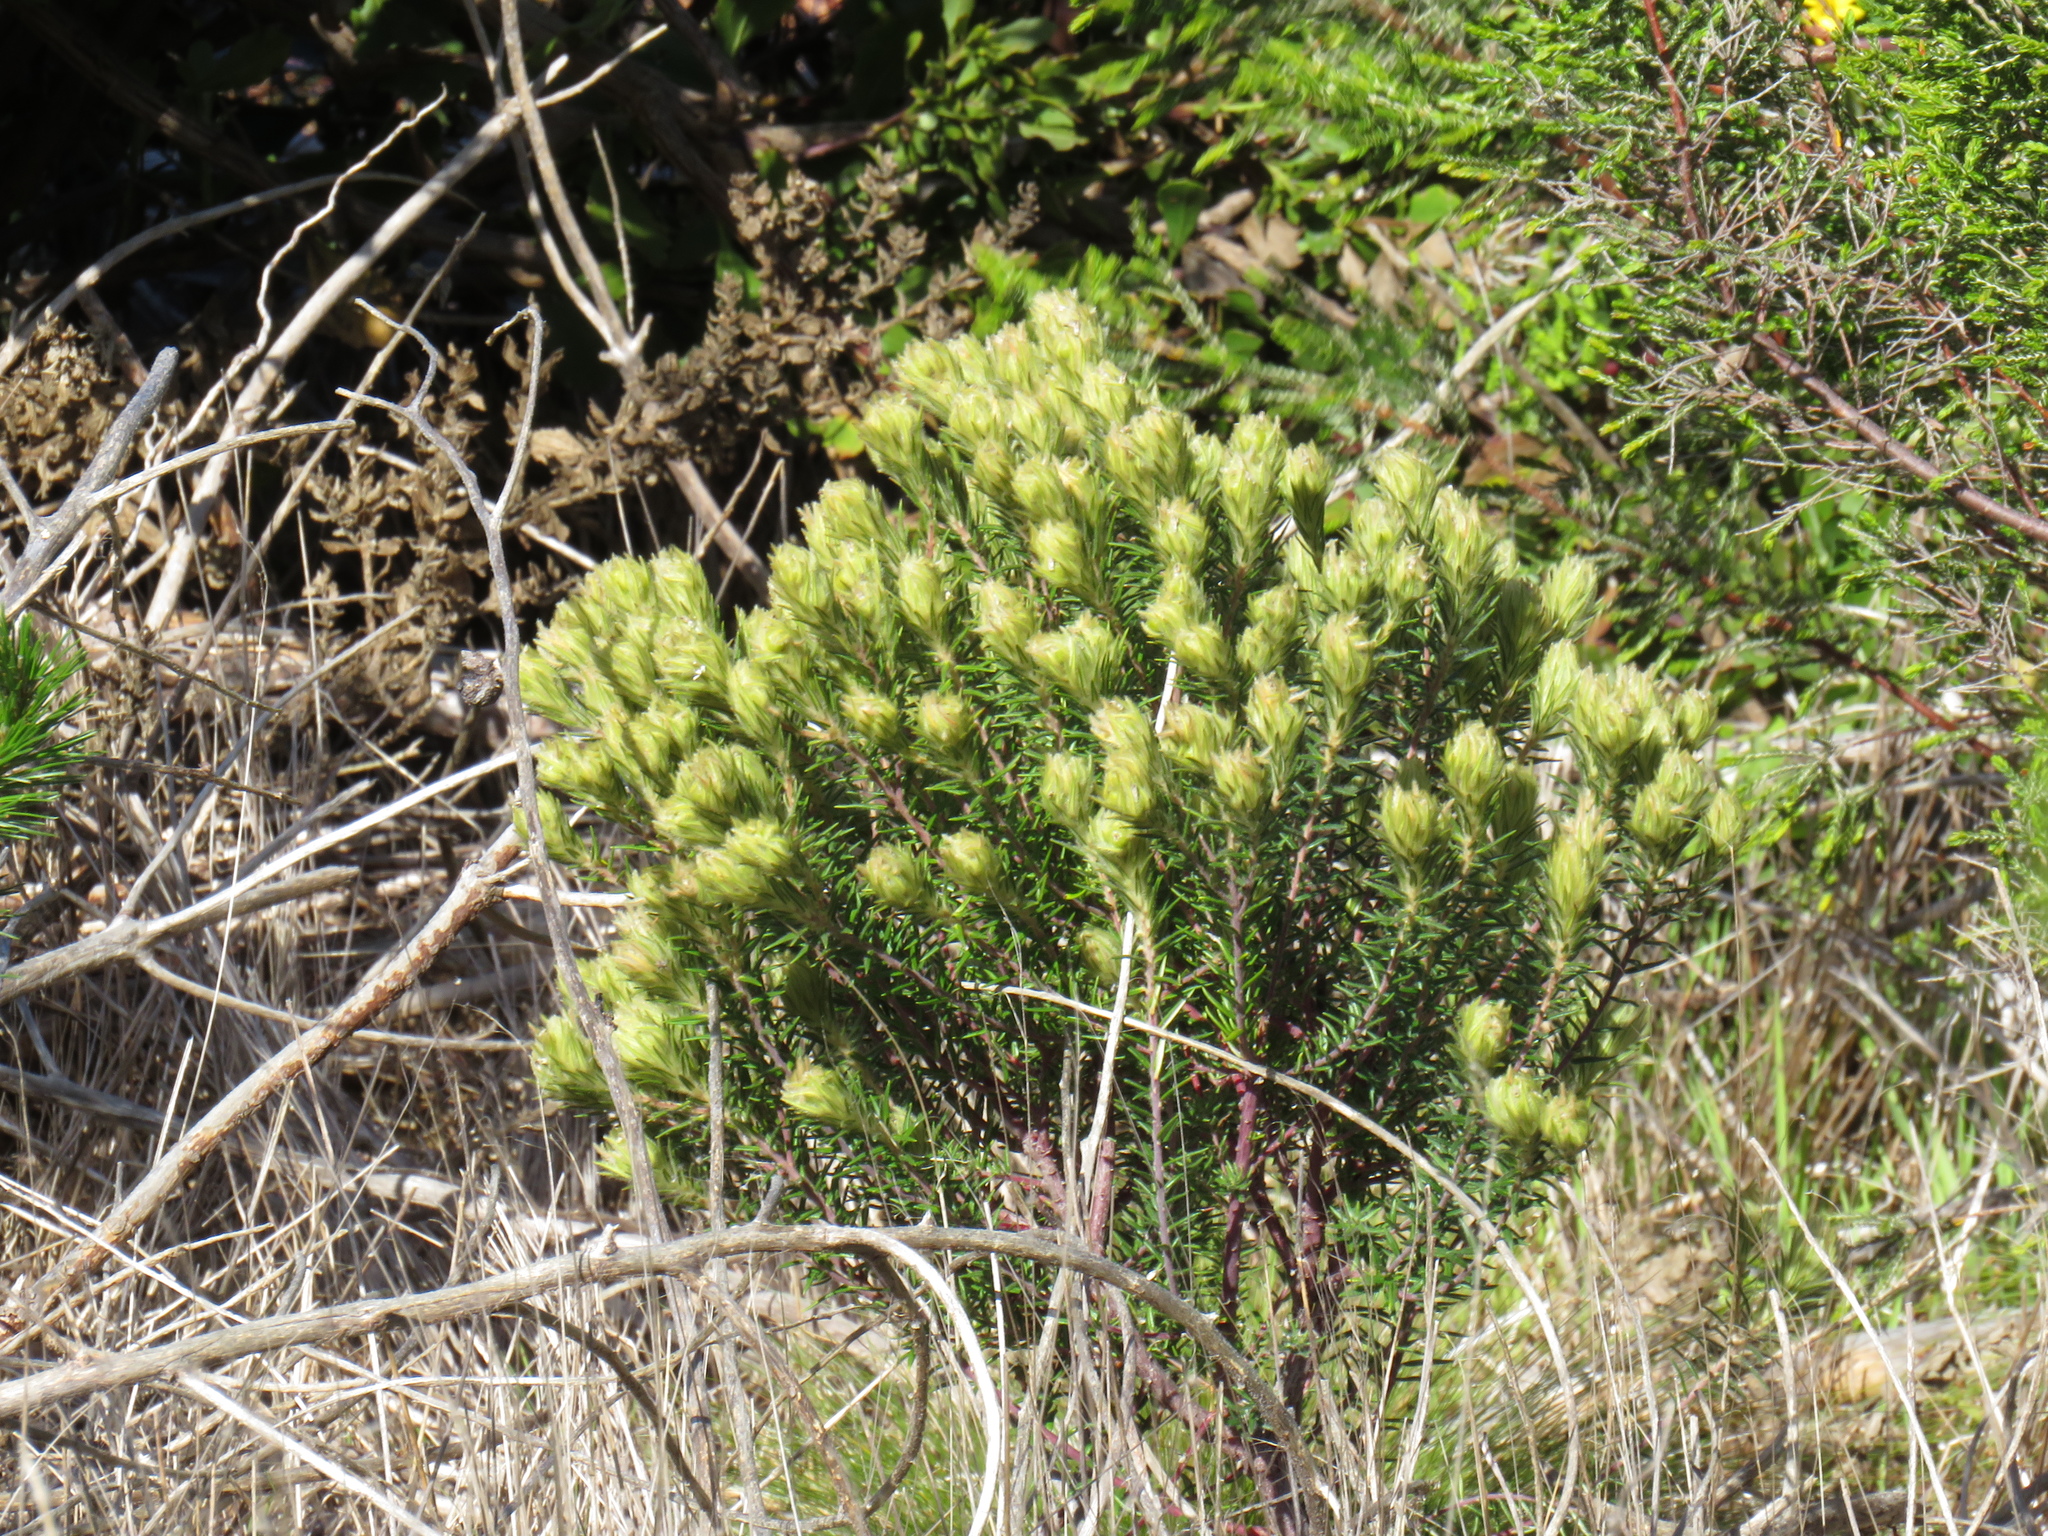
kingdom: Plantae
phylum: Tracheophyta
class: Magnoliopsida
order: Rosales
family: Rhamnaceae
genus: Phylica
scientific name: Phylica plumosa
